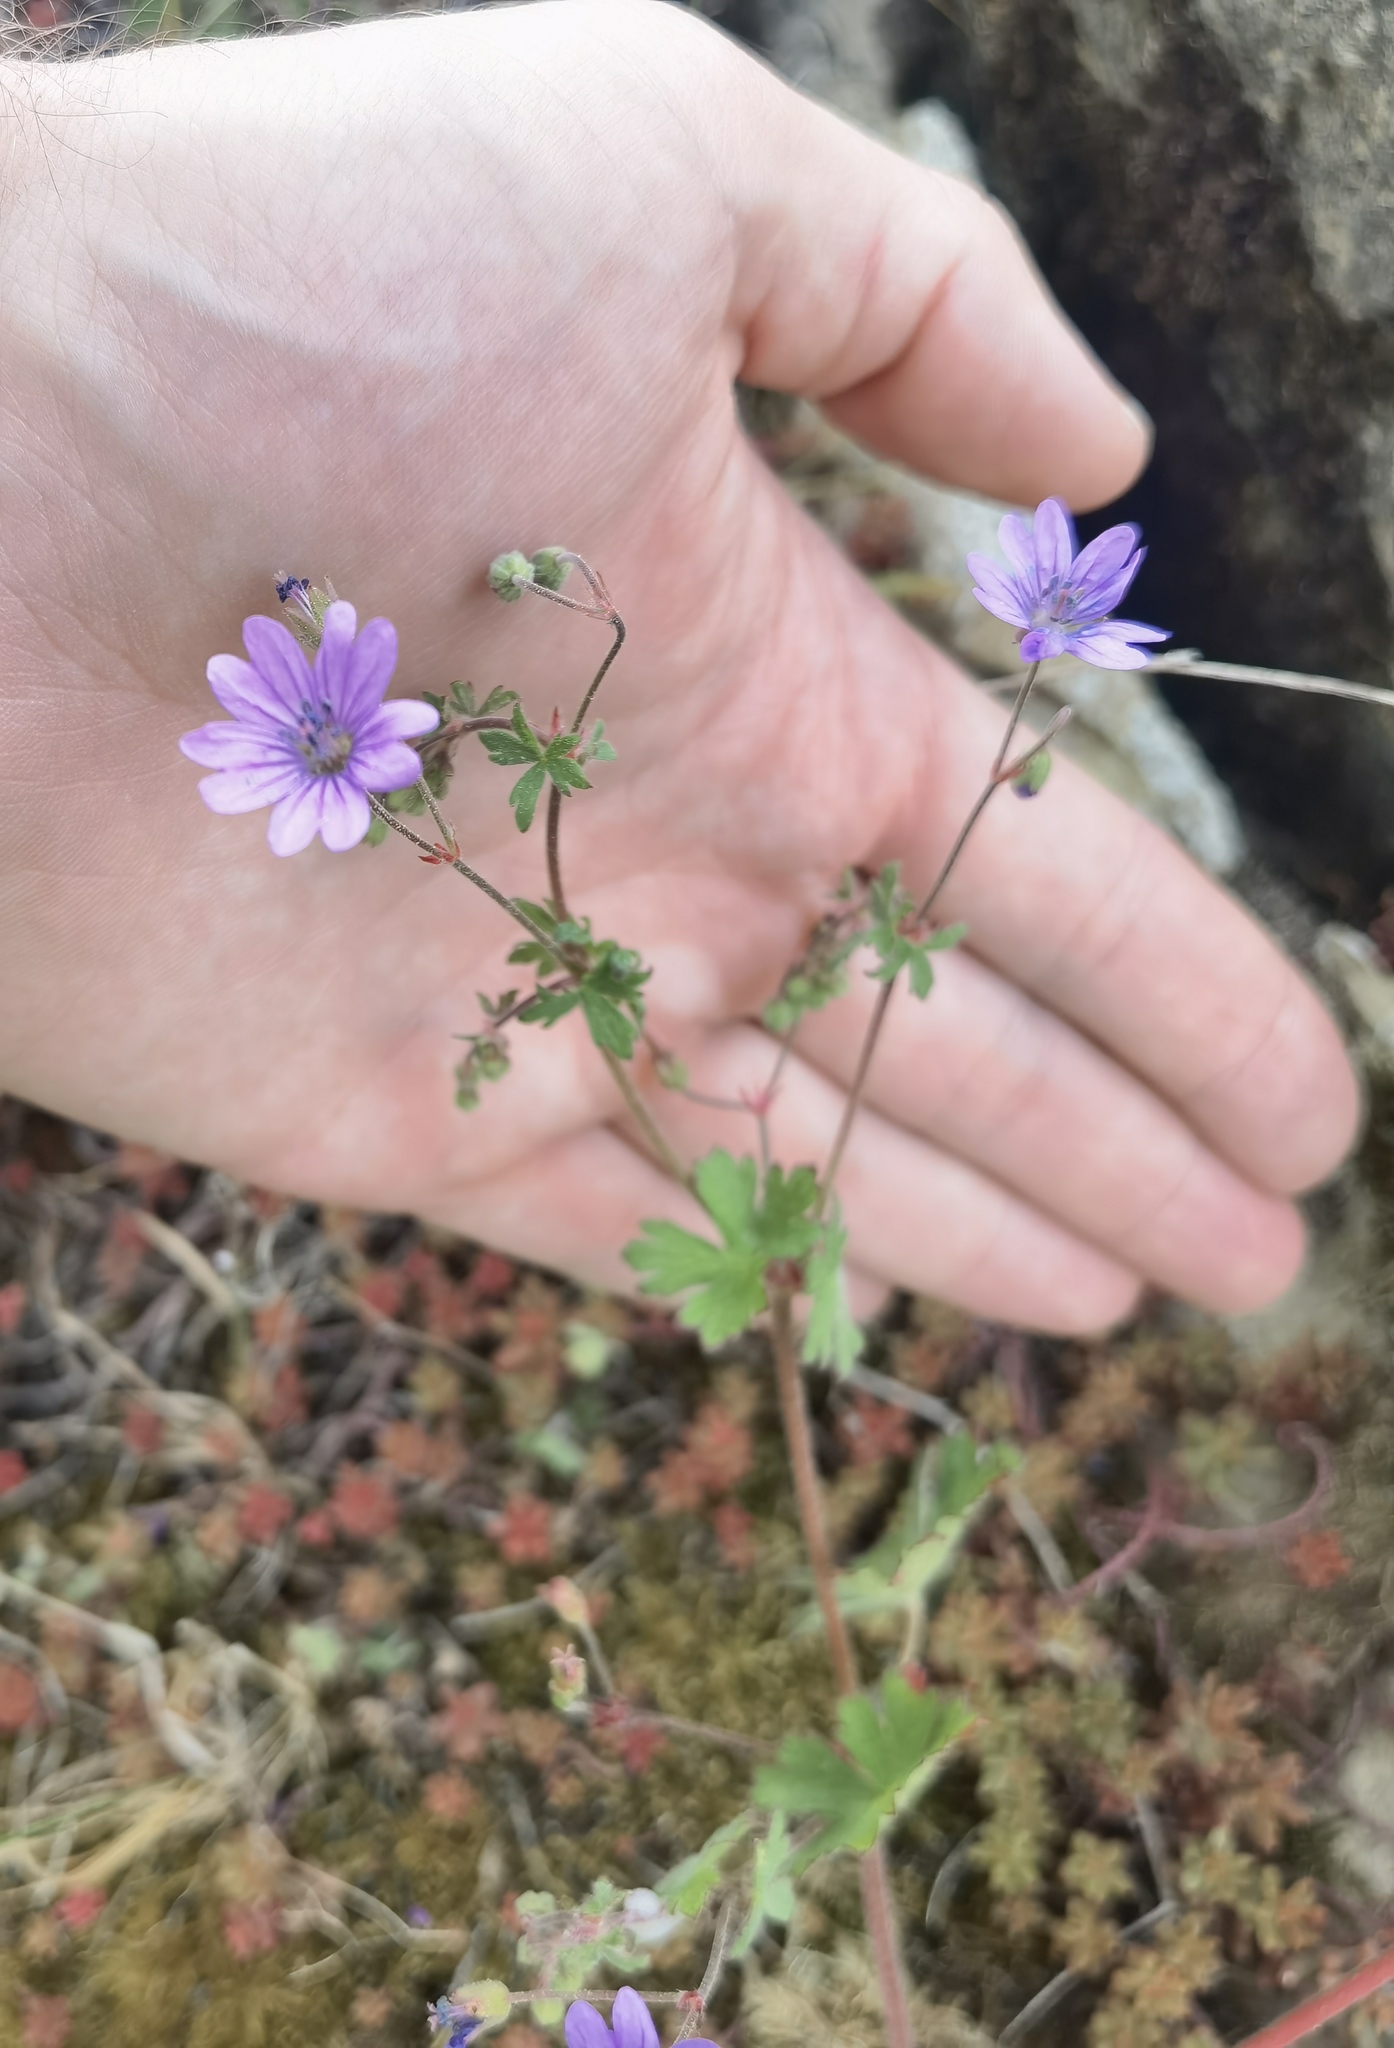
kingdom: Plantae
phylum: Tracheophyta
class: Magnoliopsida
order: Geraniales
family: Geraniaceae
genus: Geranium
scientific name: Geranium pyrenaicum
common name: Hedgerow crane's-bill
